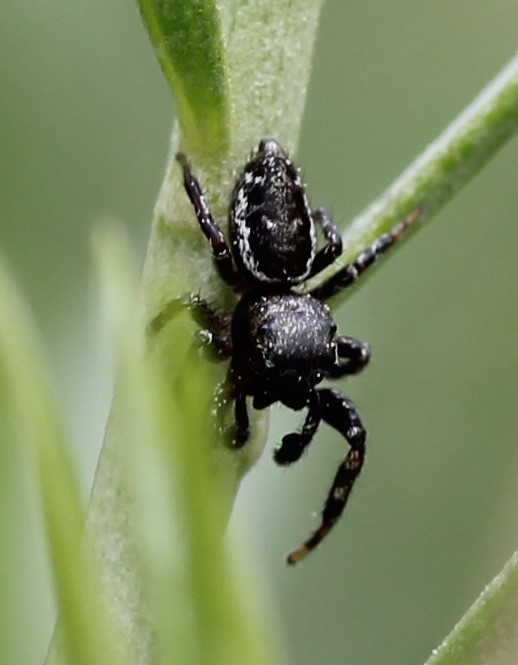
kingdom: Animalia
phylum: Arthropoda
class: Arachnida
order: Araneae
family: Salticidae
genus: Pelegrina
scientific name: Pelegrina aeneola
